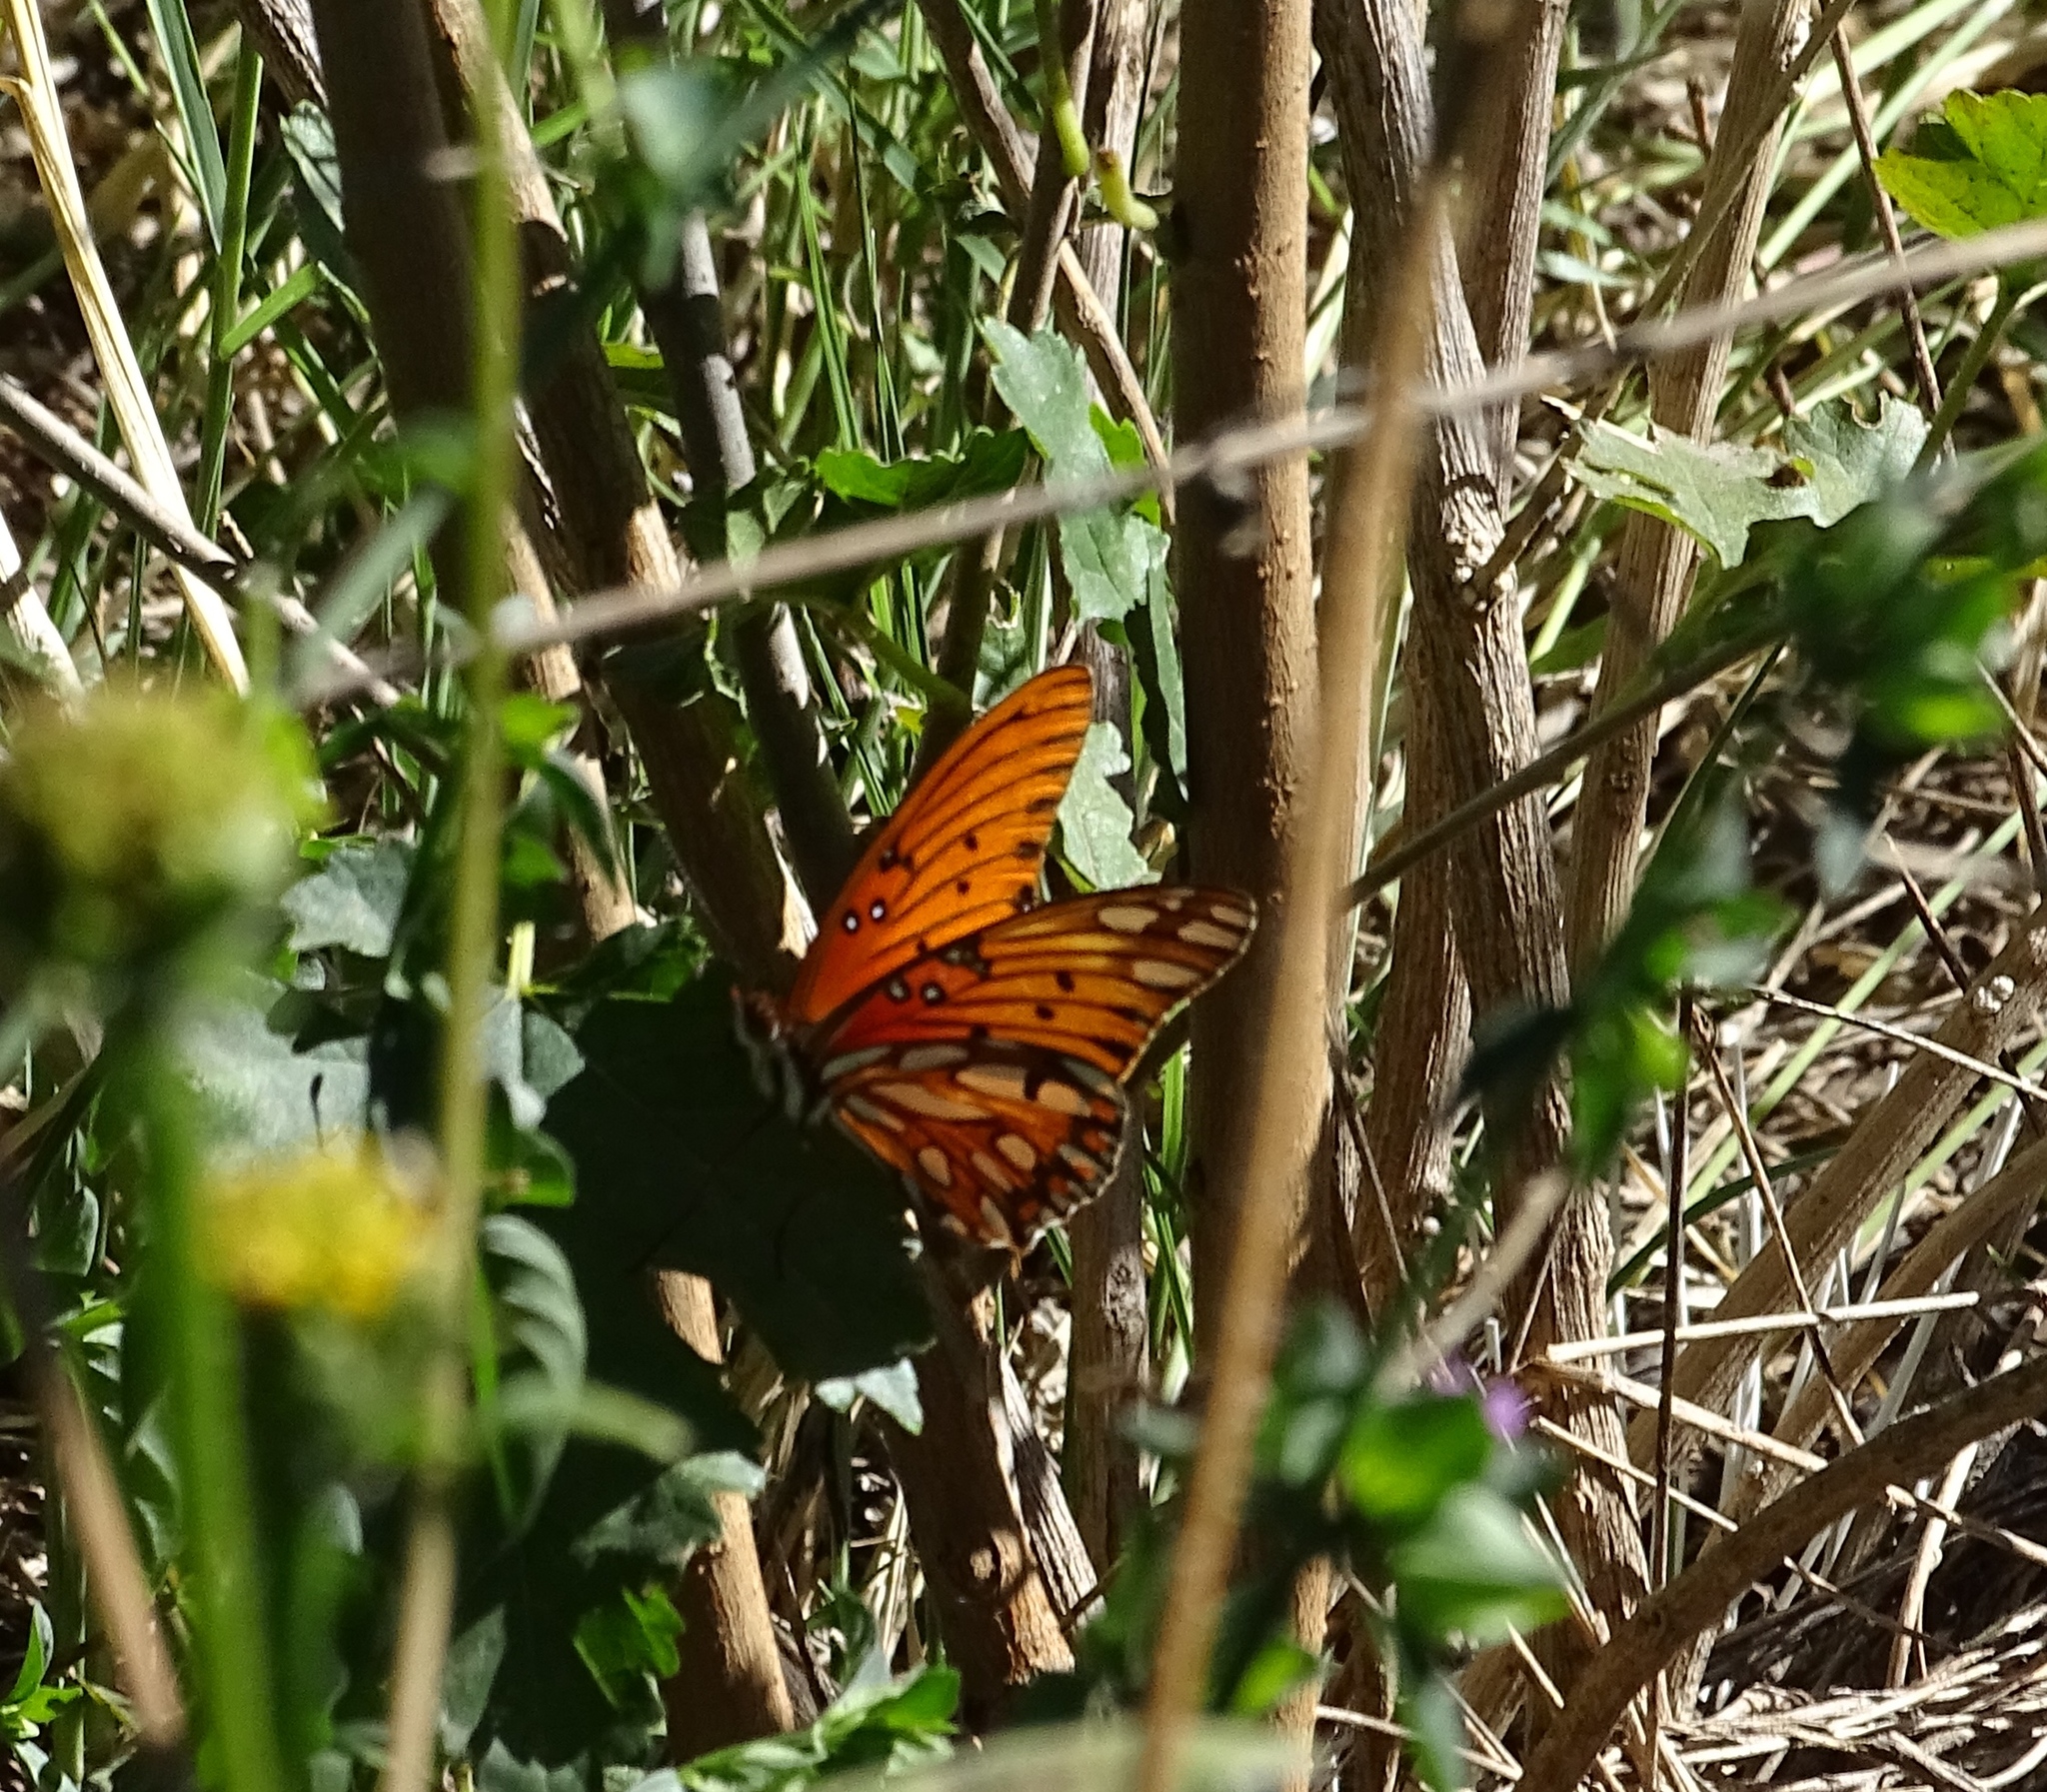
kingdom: Animalia
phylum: Arthropoda
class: Insecta
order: Lepidoptera
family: Nymphalidae
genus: Dione
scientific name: Dione vanillae
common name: Gulf fritillary
